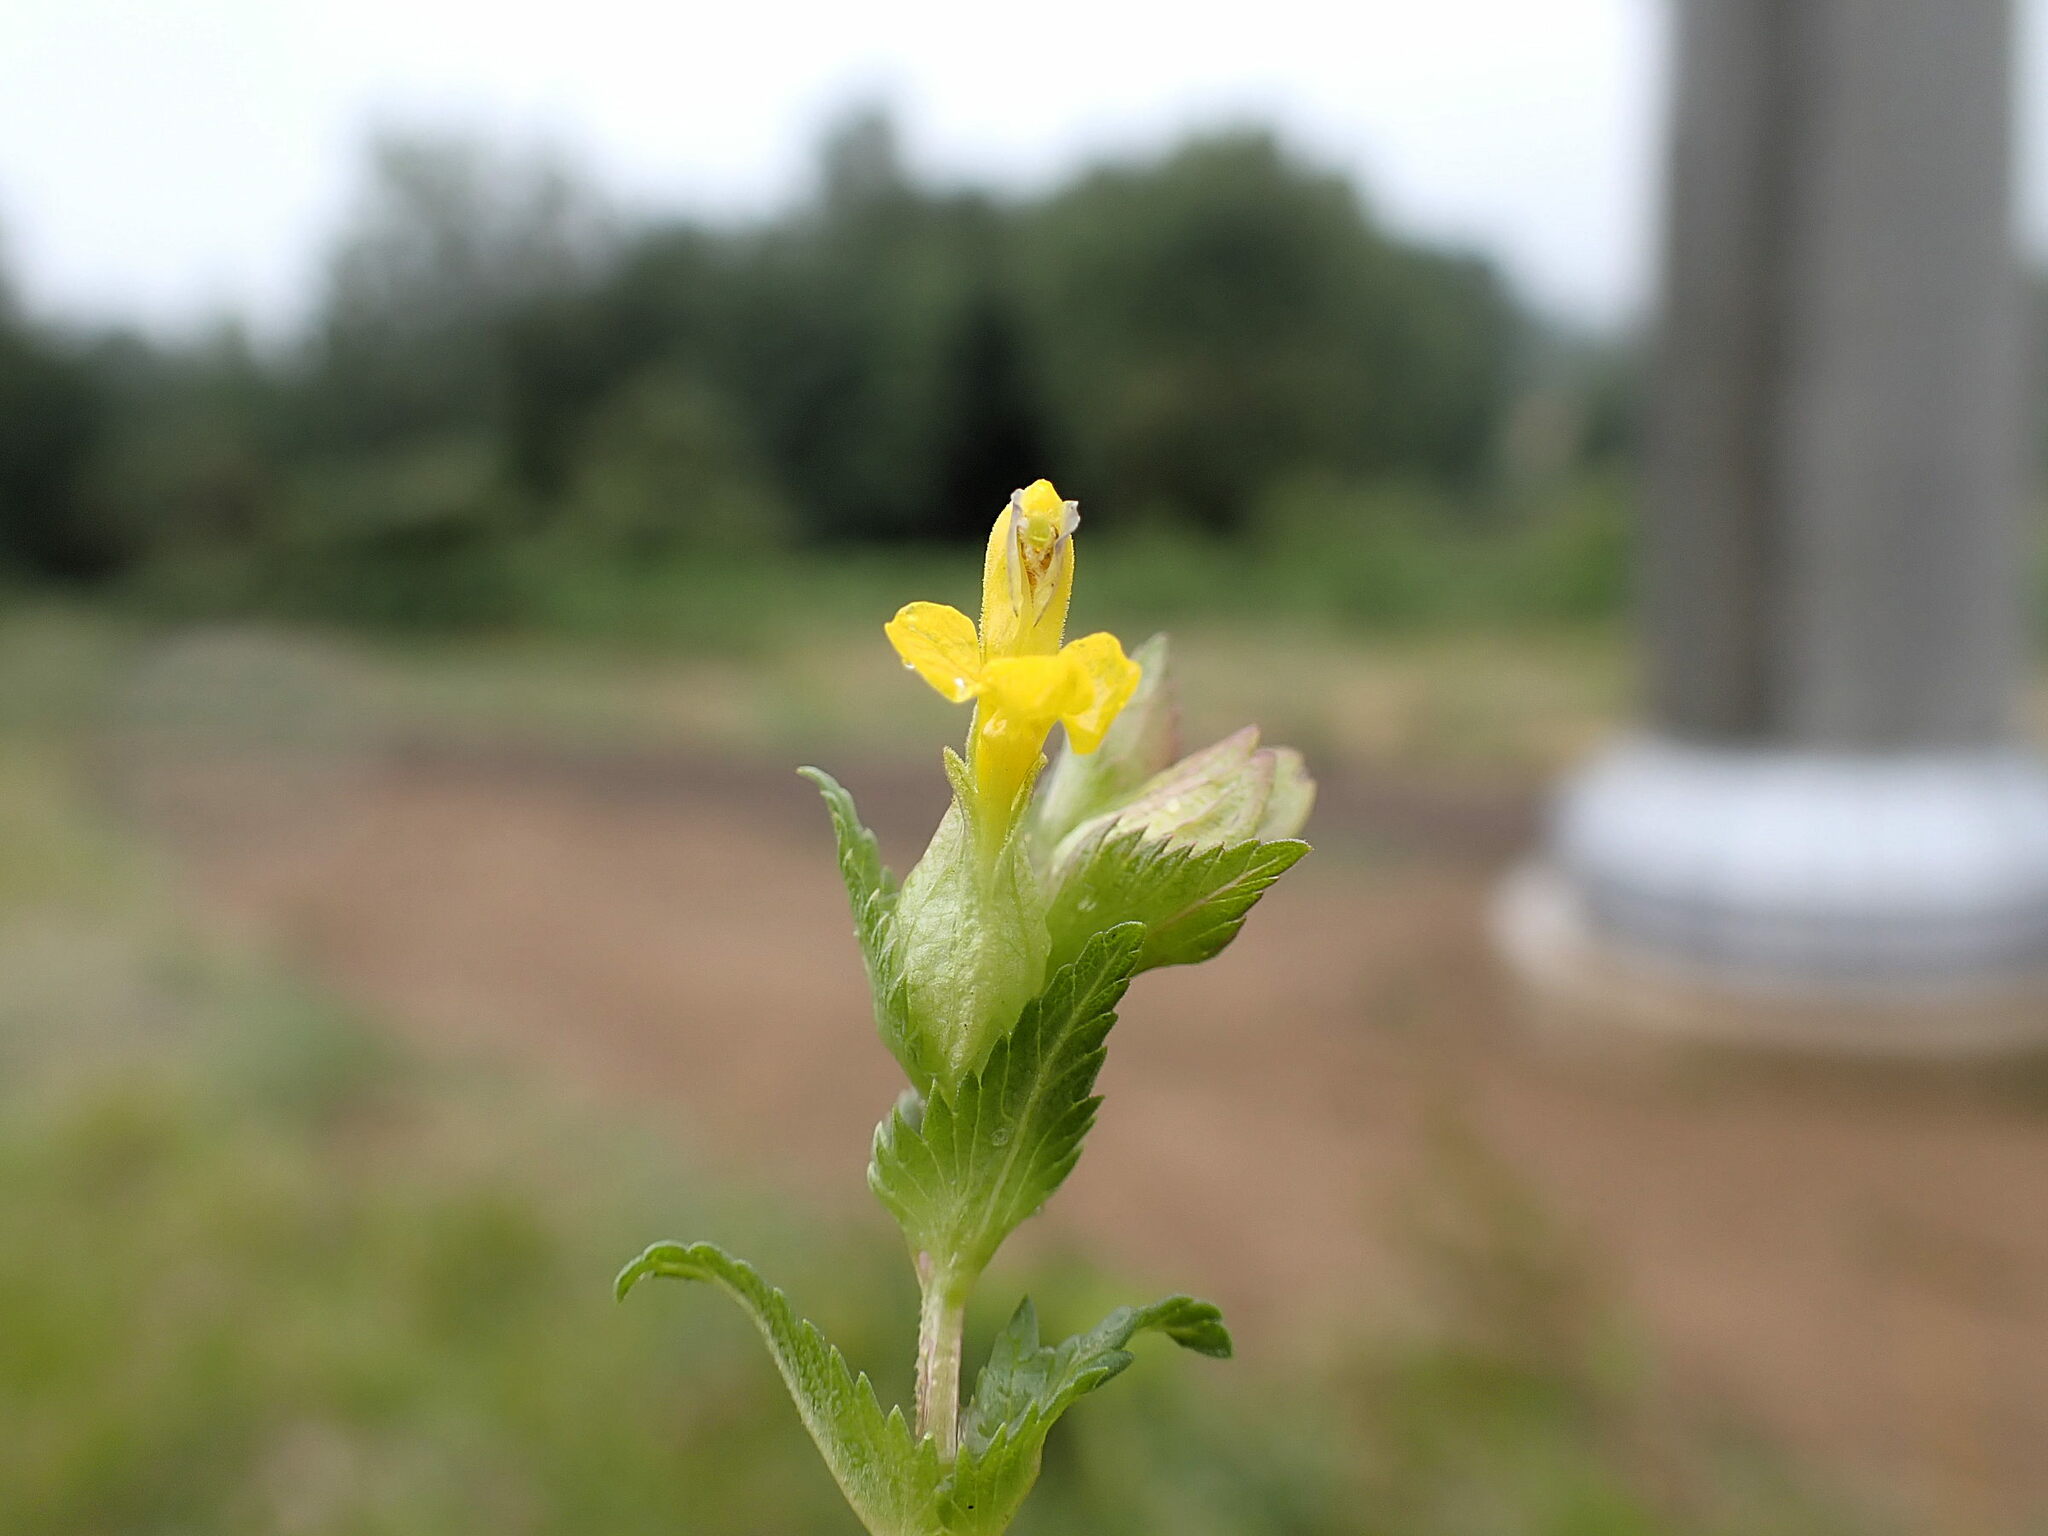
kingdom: Plantae
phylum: Tracheophyta
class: Magnoliopsida
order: Lamiales
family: Orobanchaceae
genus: Rhinanthus
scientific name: Rhinanthus minor
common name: Yellow-rattle
